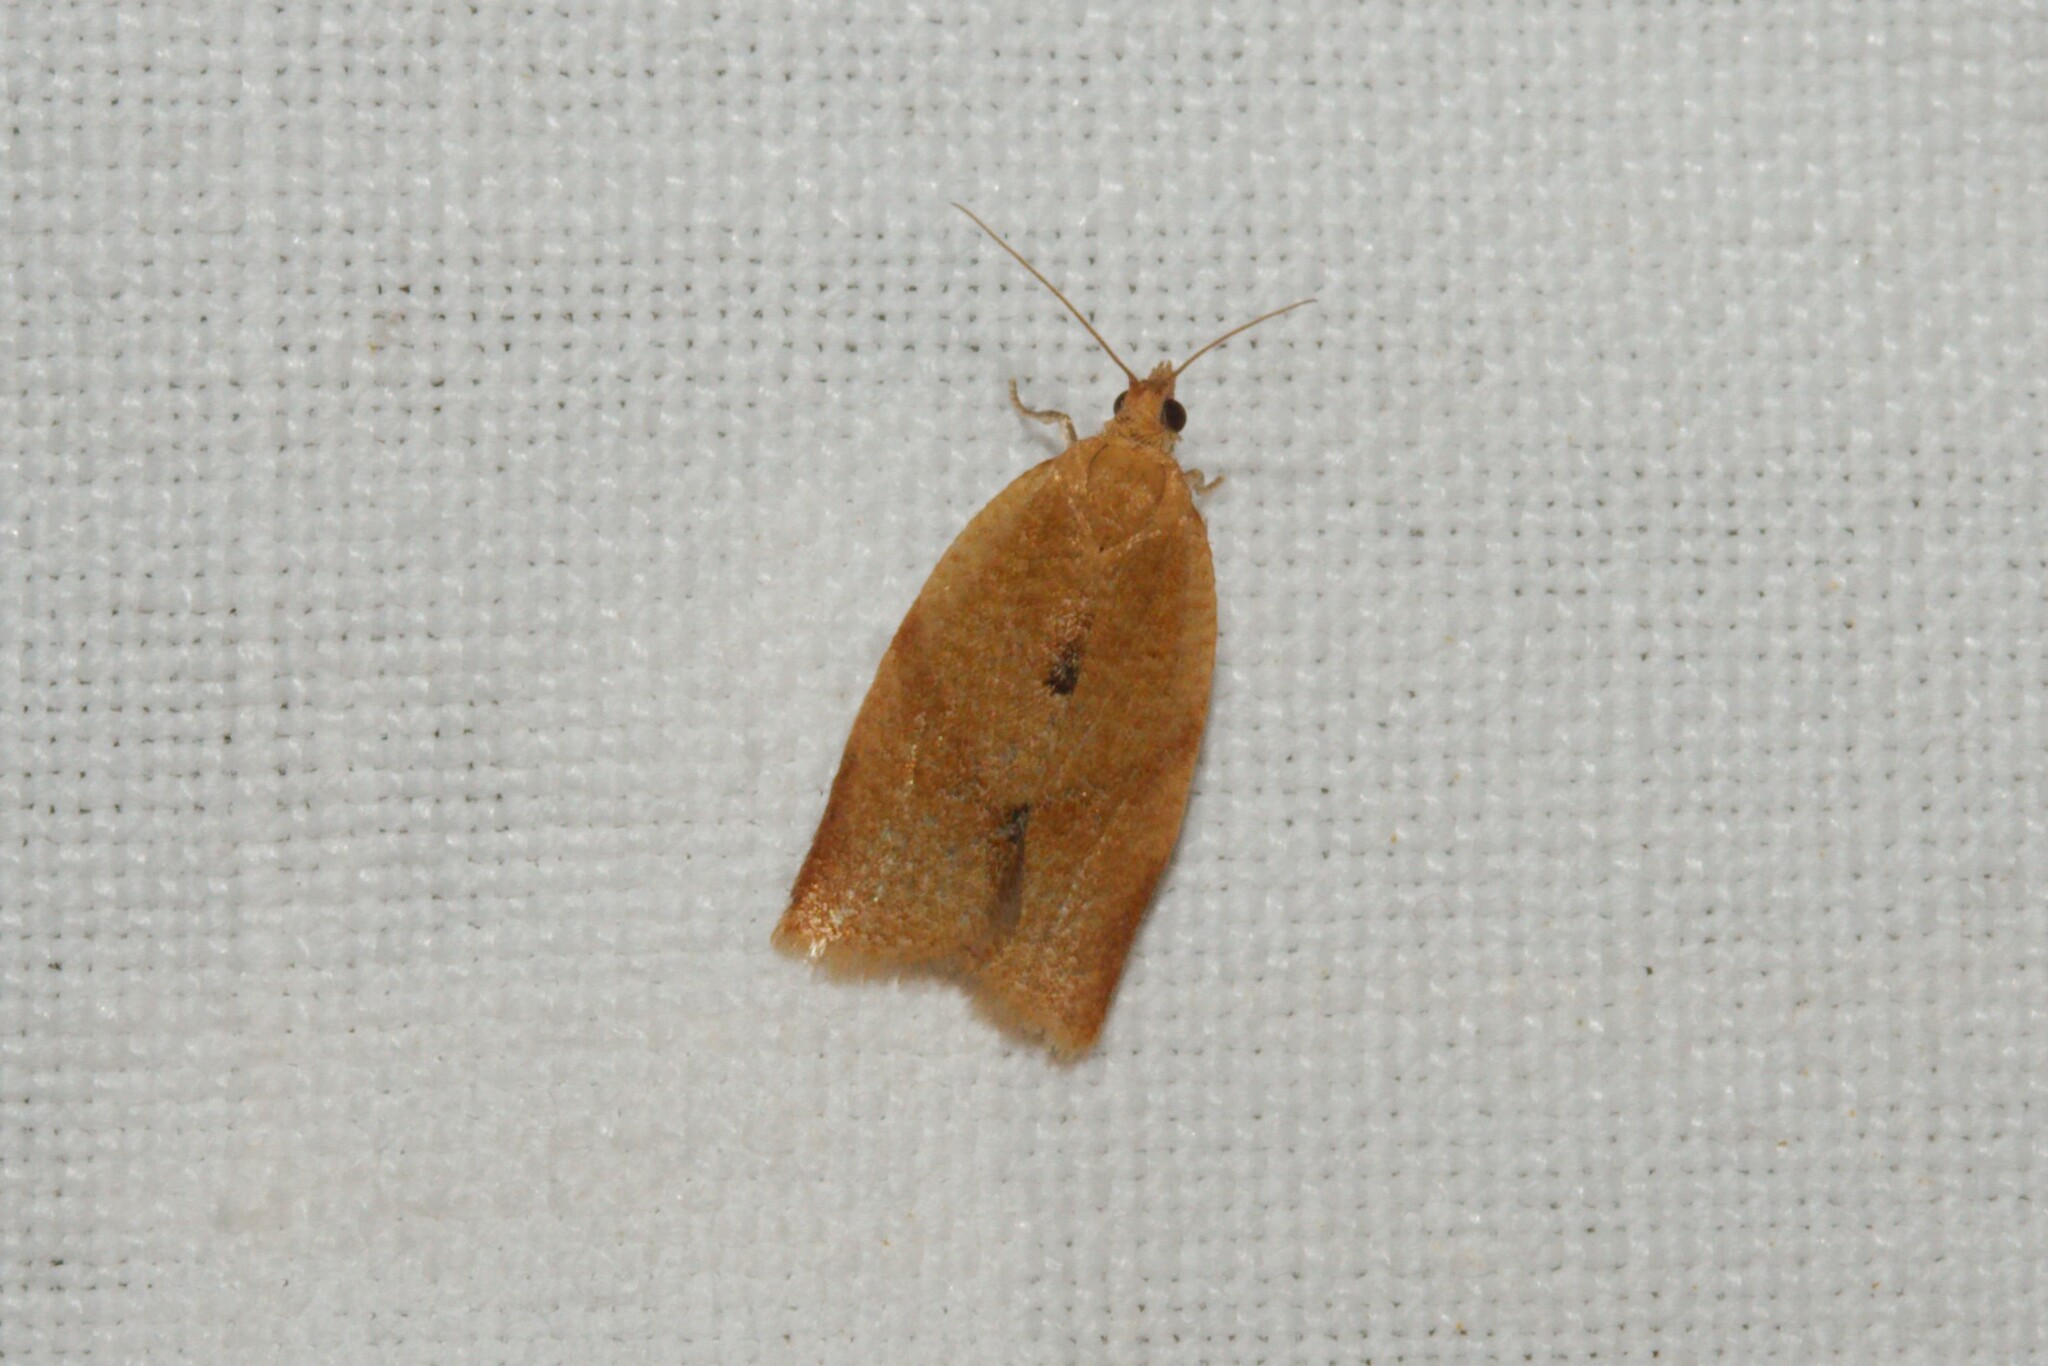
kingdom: Animalia
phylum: Arthropoda
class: Insecta
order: Lepidoptera
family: Tortricidae
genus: Clepsis
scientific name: Clepsis consimilana
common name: Privet tortrix
